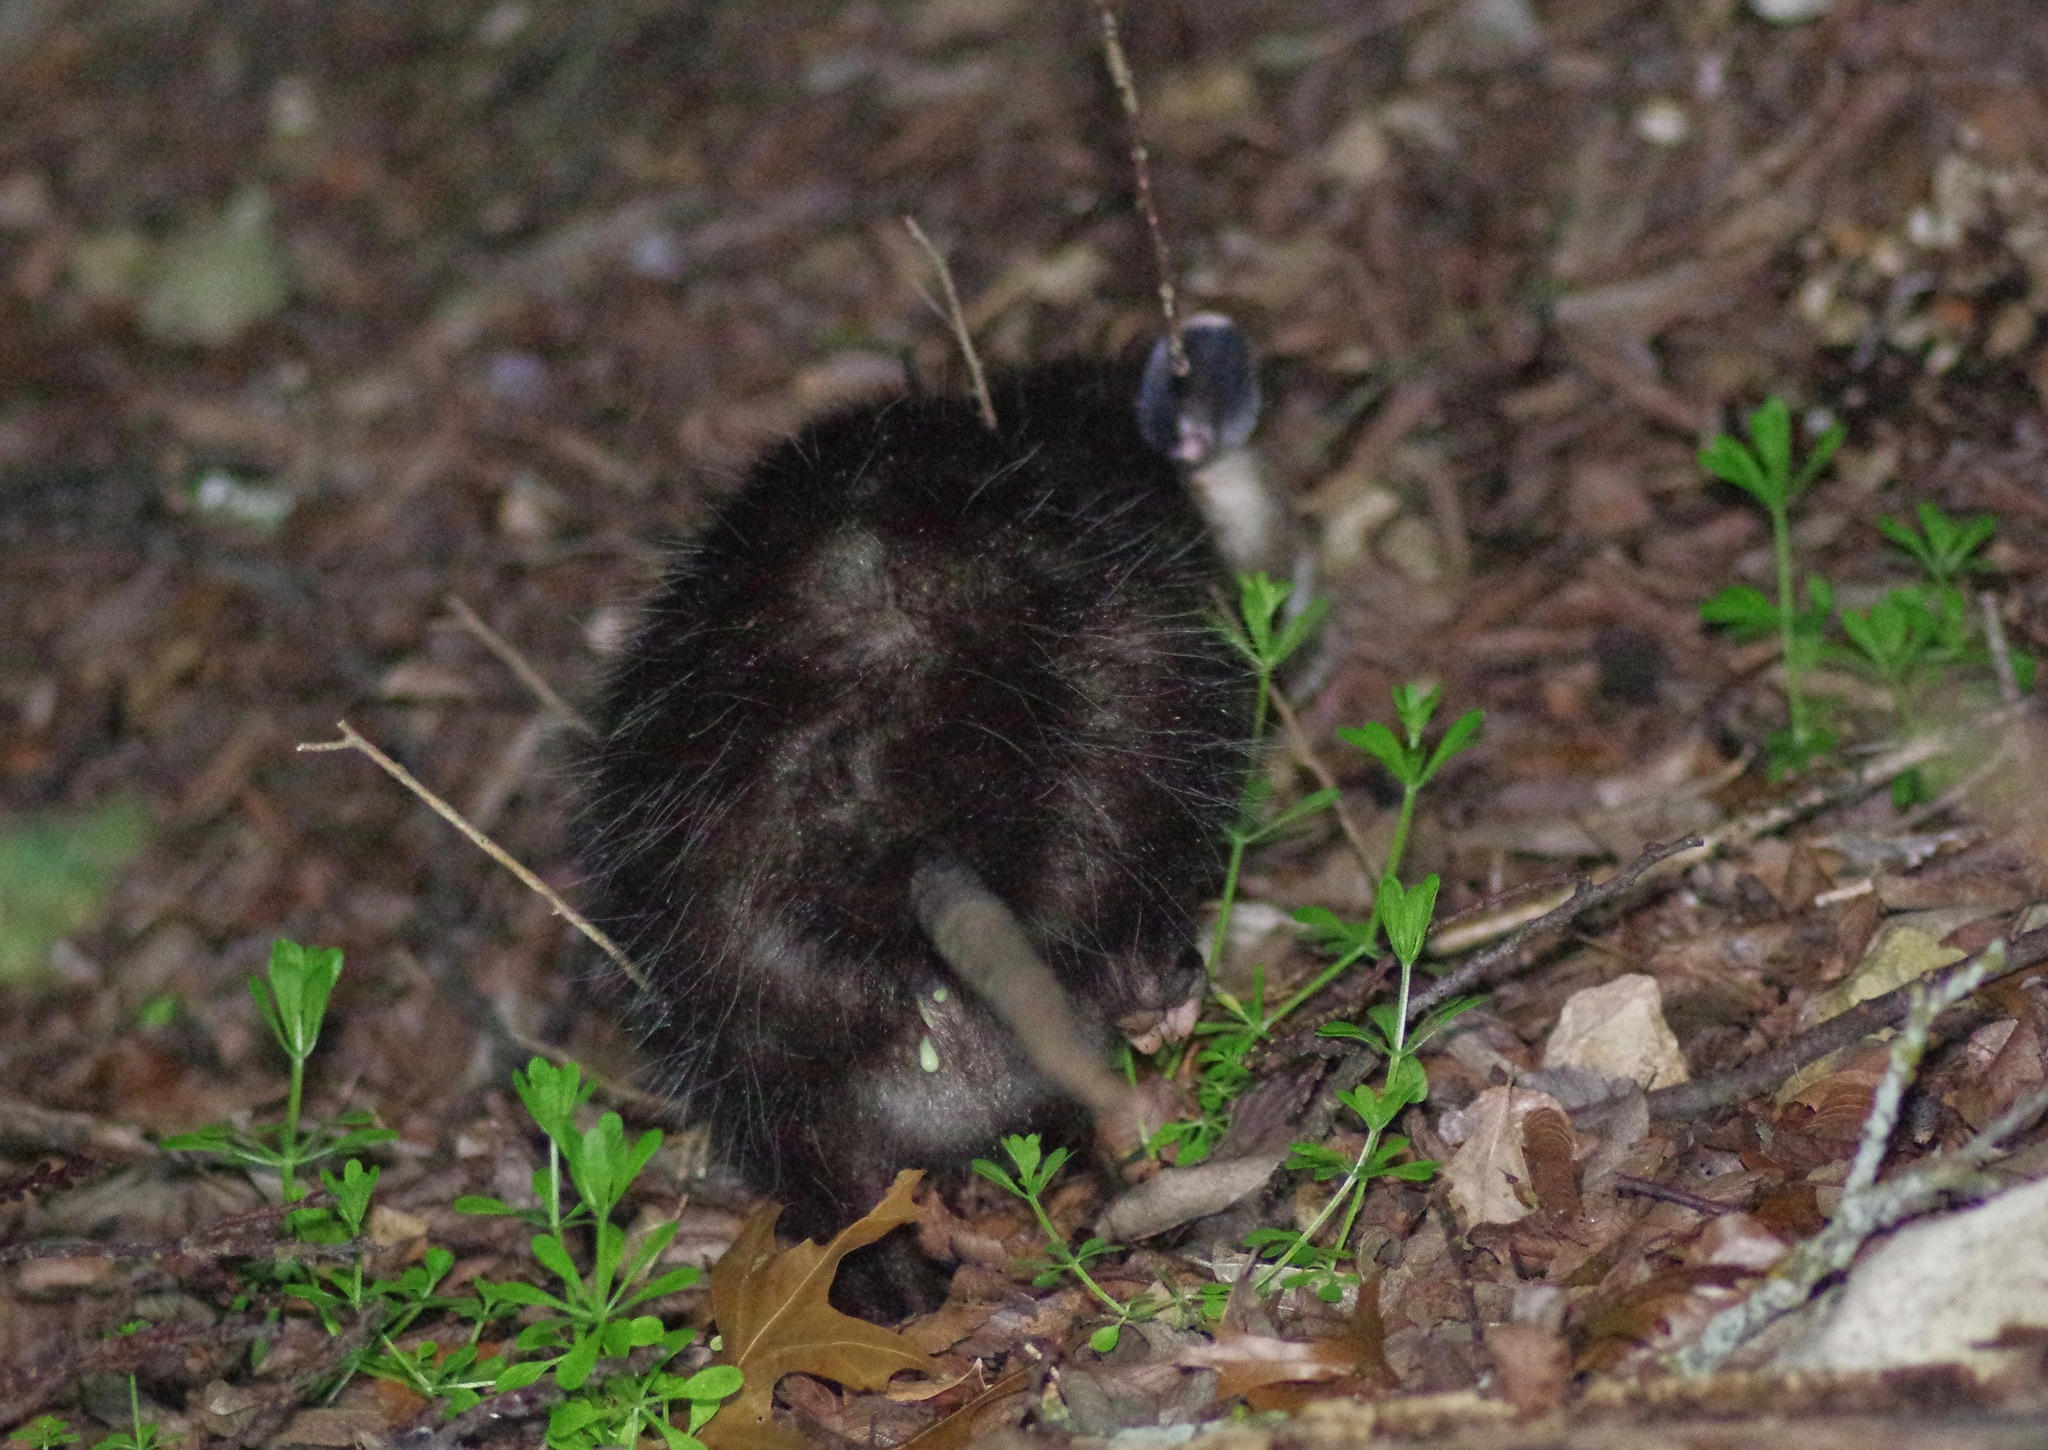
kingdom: Animalia
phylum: Chordata
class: Mammalia
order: Didelphimorphia
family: Didelphidae
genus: Didelphis
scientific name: Didelphis virginiana
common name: Virginia opossum
